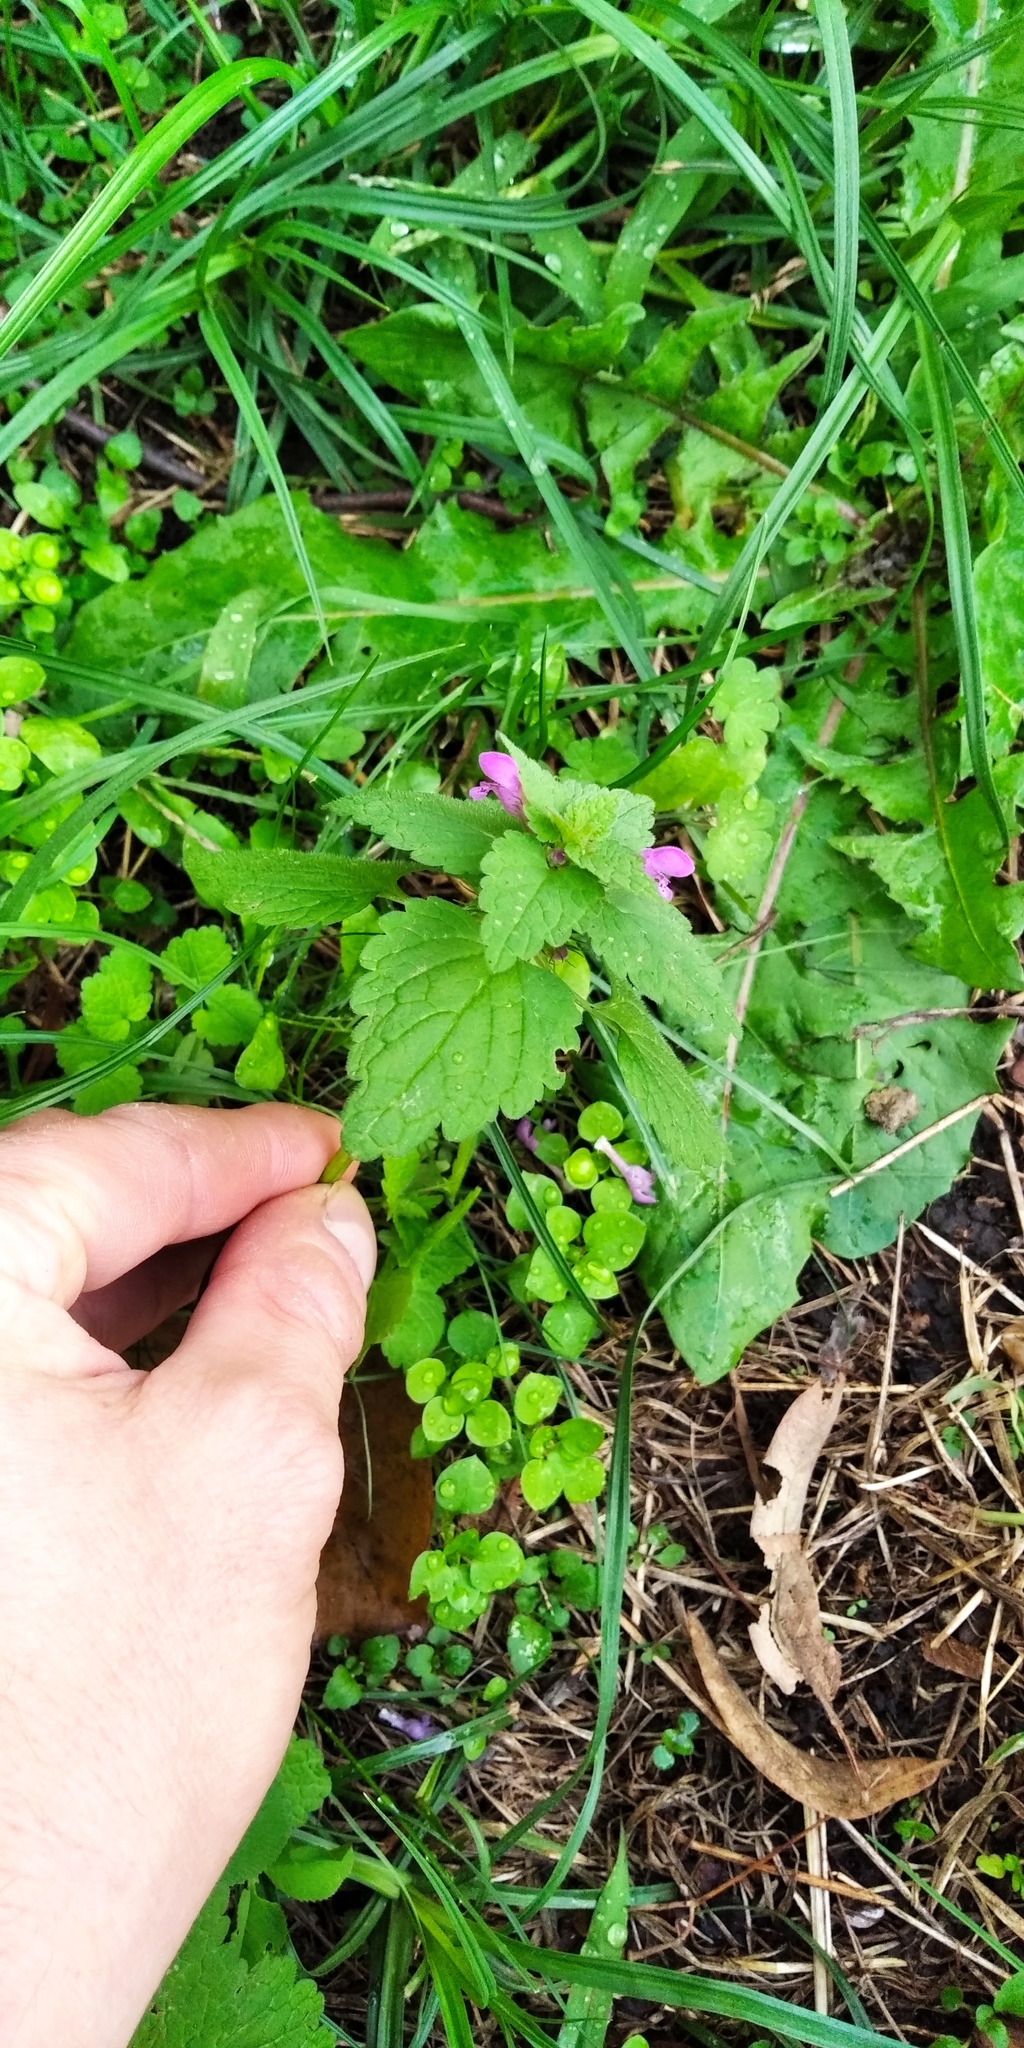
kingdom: Plantae
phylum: Tracheophyta
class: Magnoliopsida
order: Lamiales
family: Lamiaceae
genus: Lamium
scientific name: Lamium purpureum
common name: Red dead-nettle
